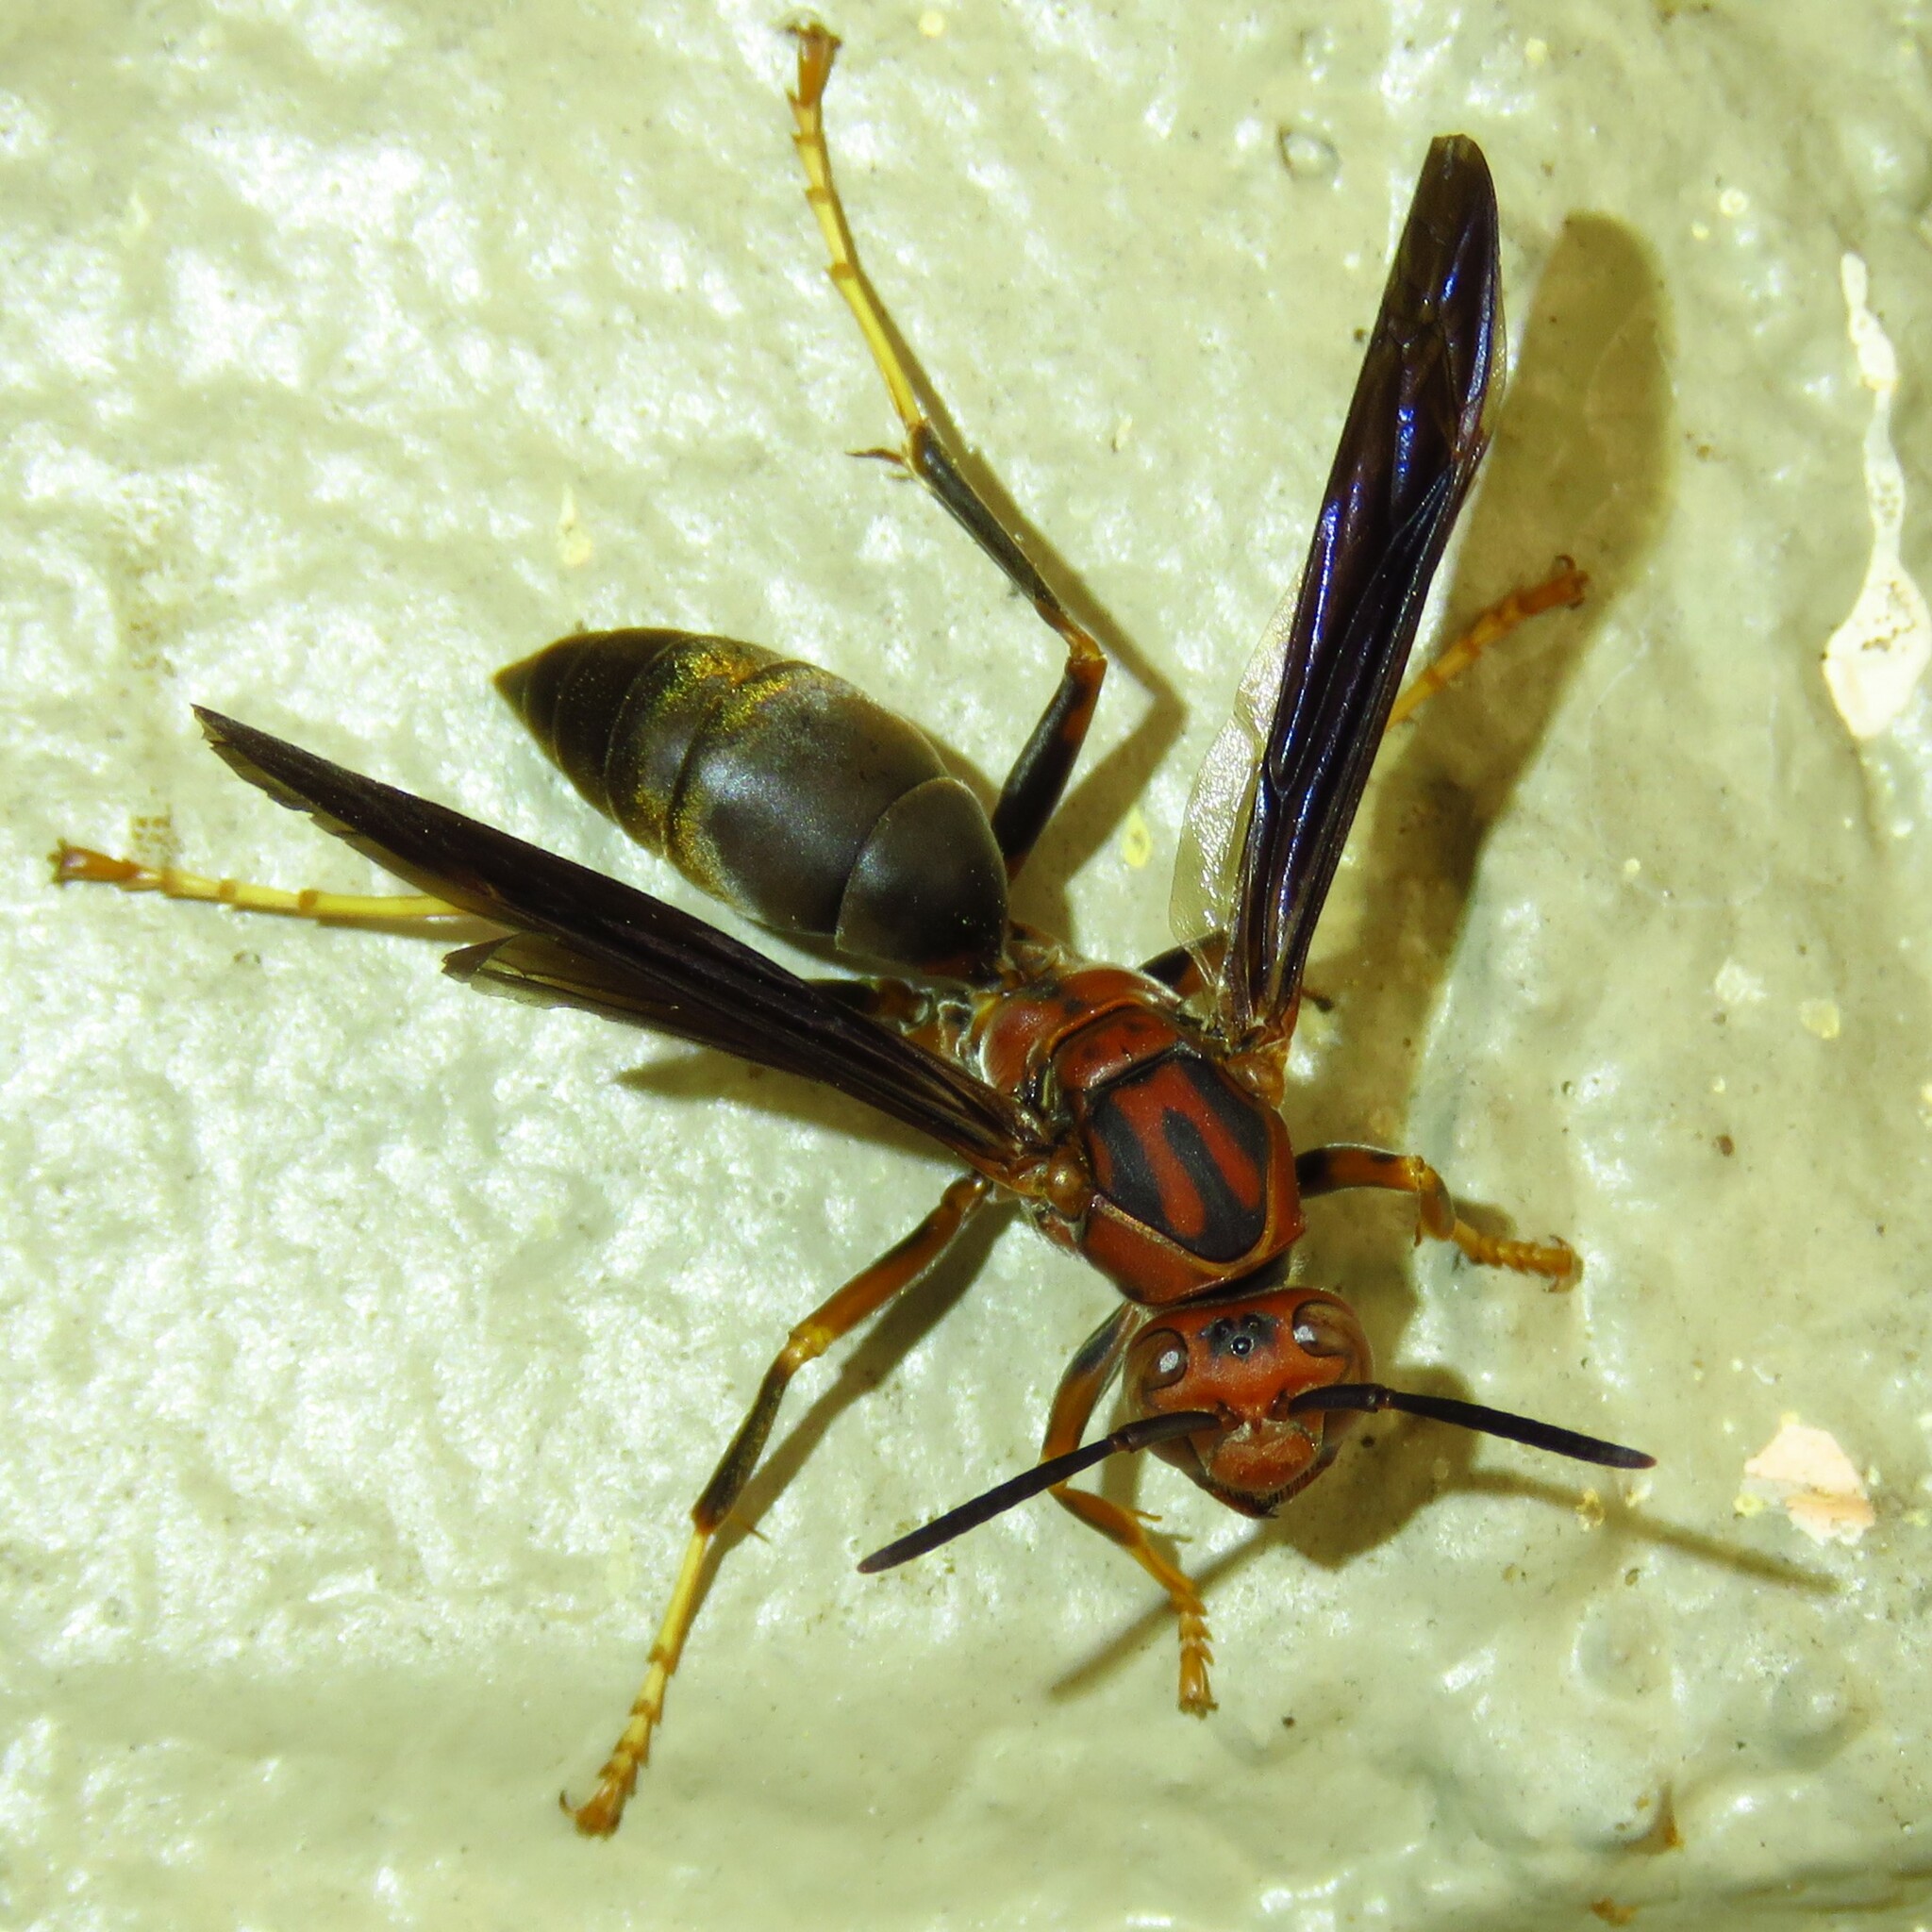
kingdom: Animalia
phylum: Arthropoda
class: Insecta
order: Hymenoptera
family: Eumenidae
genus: Polistes
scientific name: Polistes metricus
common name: Metric paper wasp
